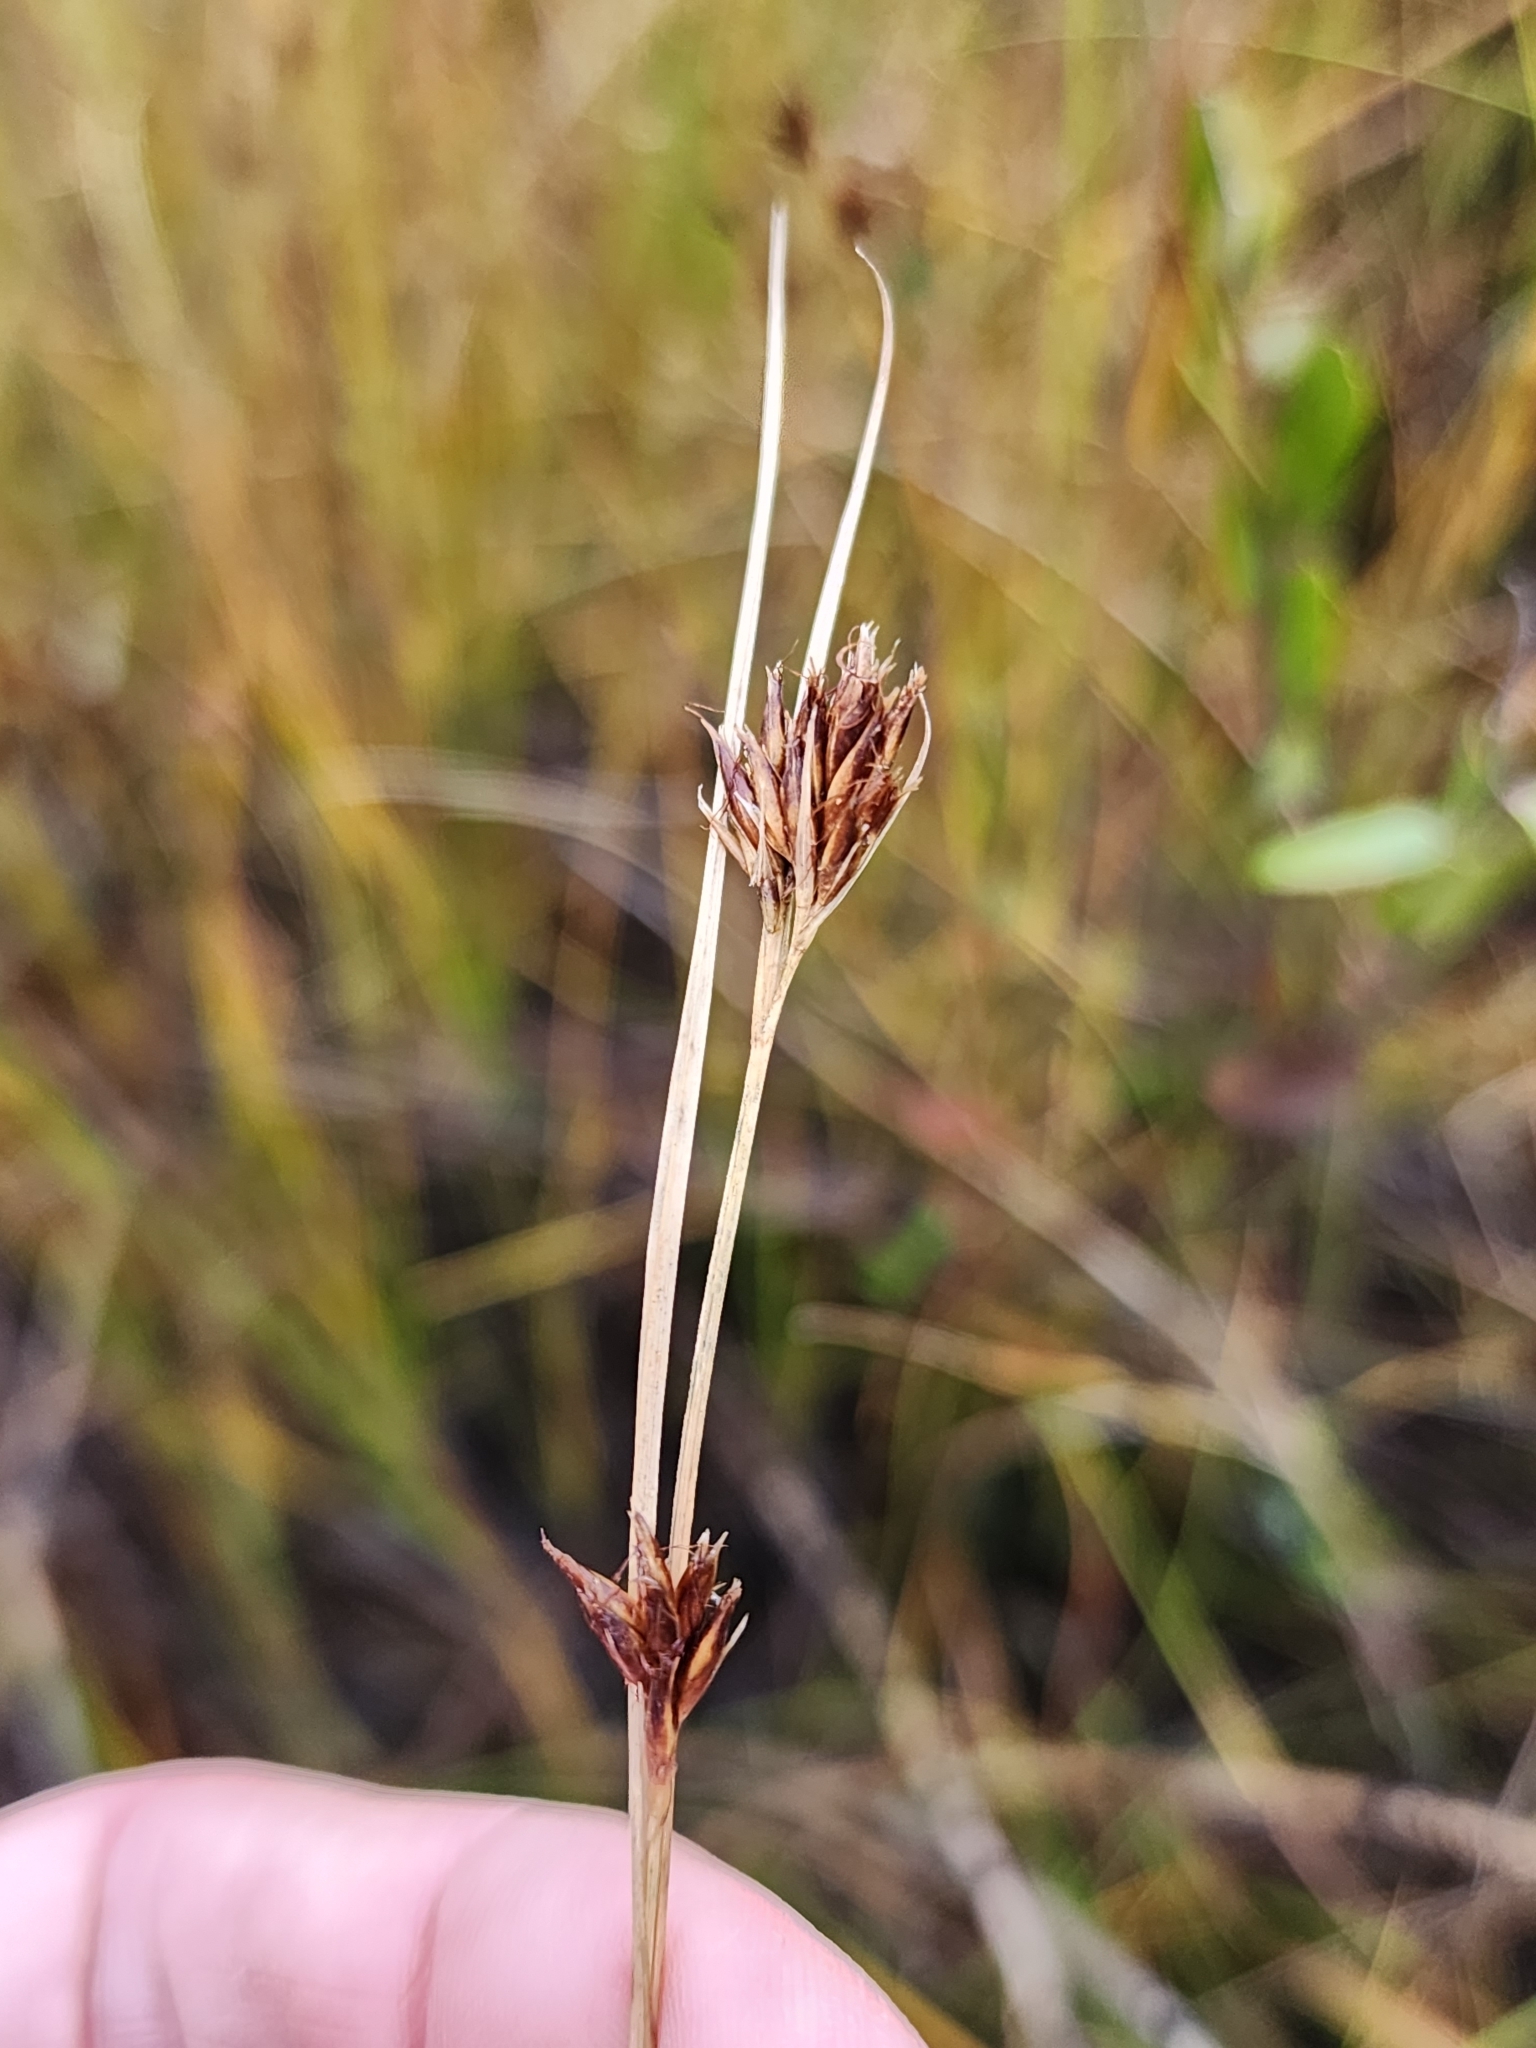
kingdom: Plantae
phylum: Tracheophyta
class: Liliopsida
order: Poales
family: Cyperaceae
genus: Rhynchospora
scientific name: Rhynchospora fusca
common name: Brown beak-sedge
